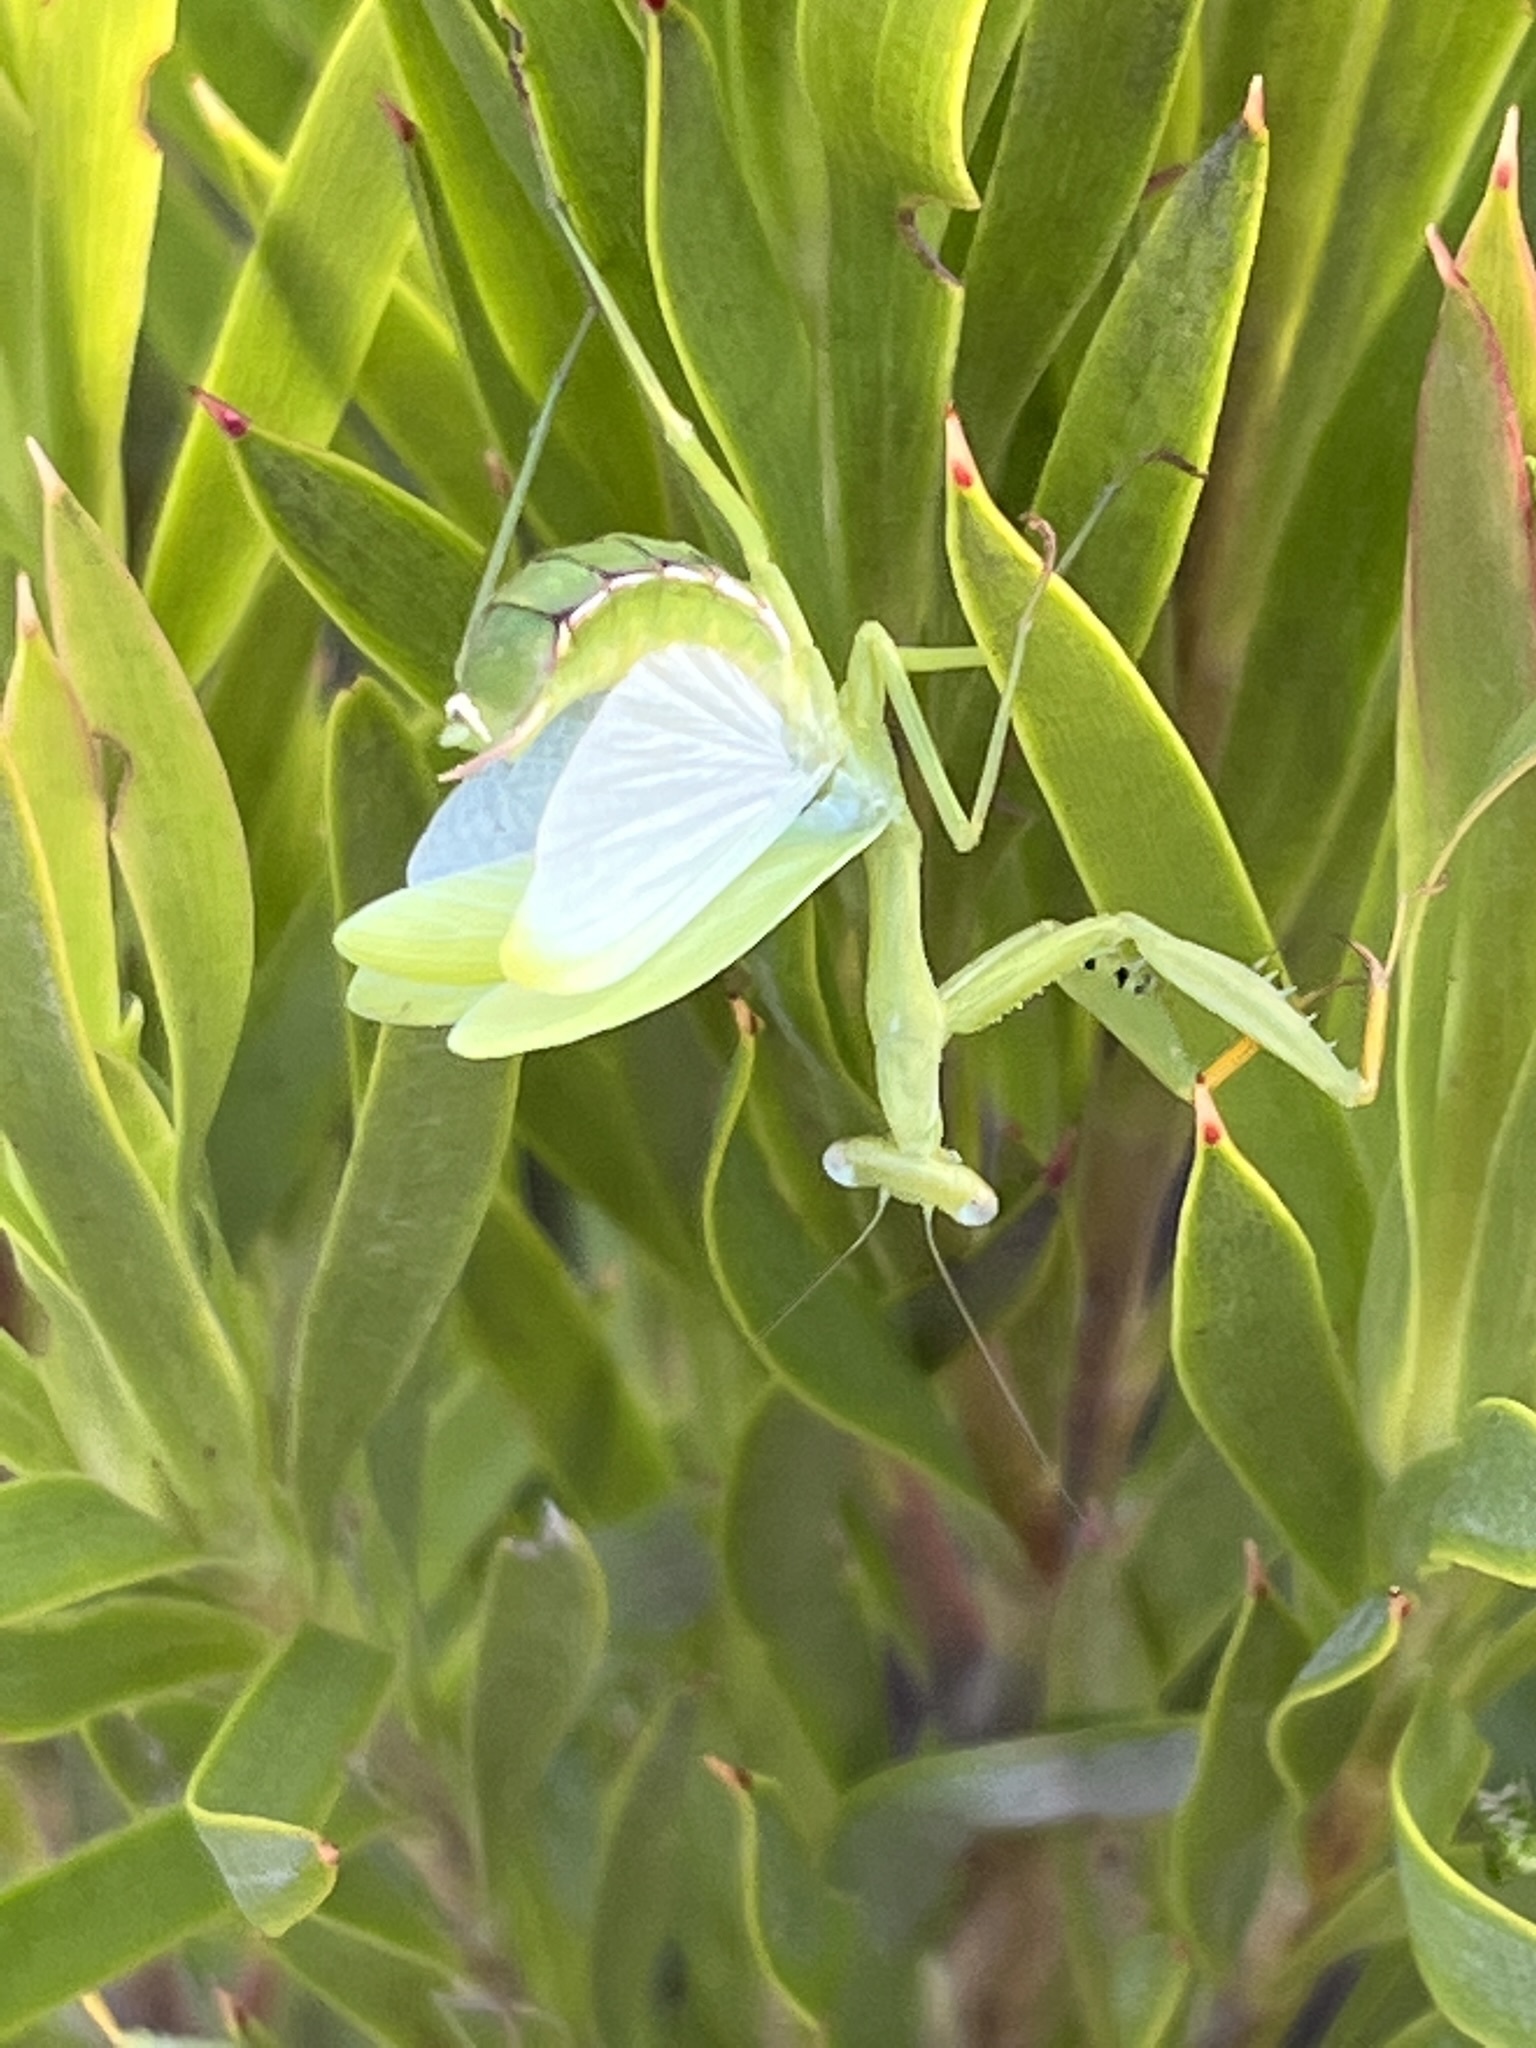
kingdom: Animalia
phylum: Arthropoda
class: Insecta
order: Mantodea
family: Miomantidae
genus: Miomantis
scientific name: Miomantis caffra
